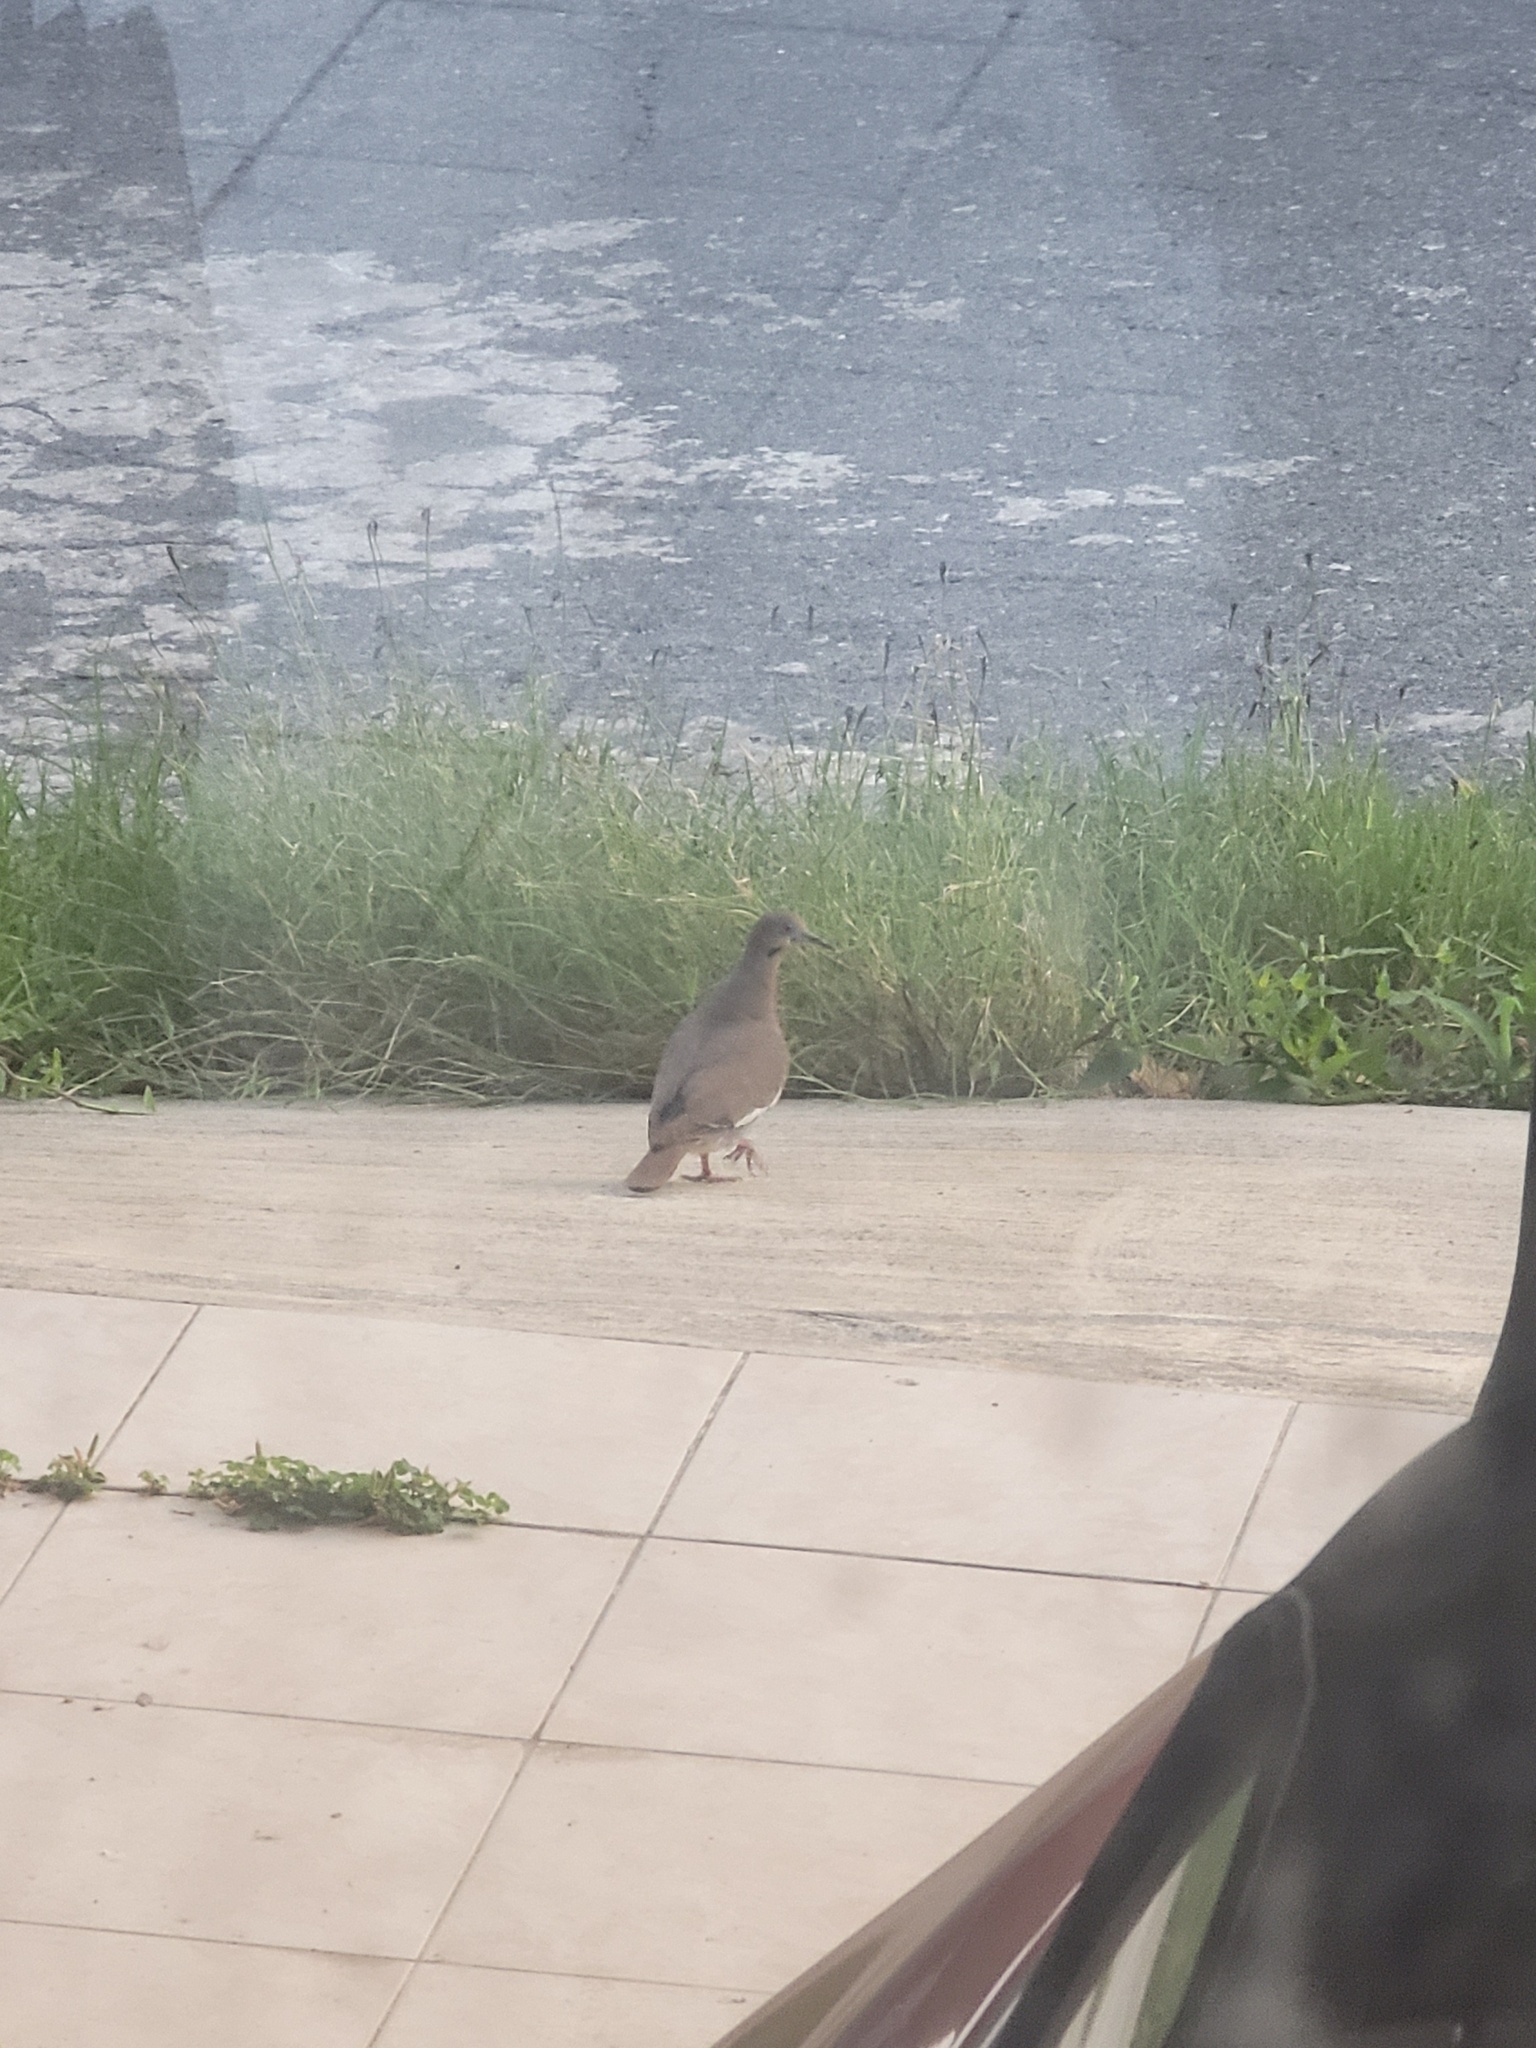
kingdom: Animalia
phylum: Chordata
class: Aves
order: Columbiformes
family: Columbidae
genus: Zenaida
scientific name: Zenaida asiatica
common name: White-winged dove
